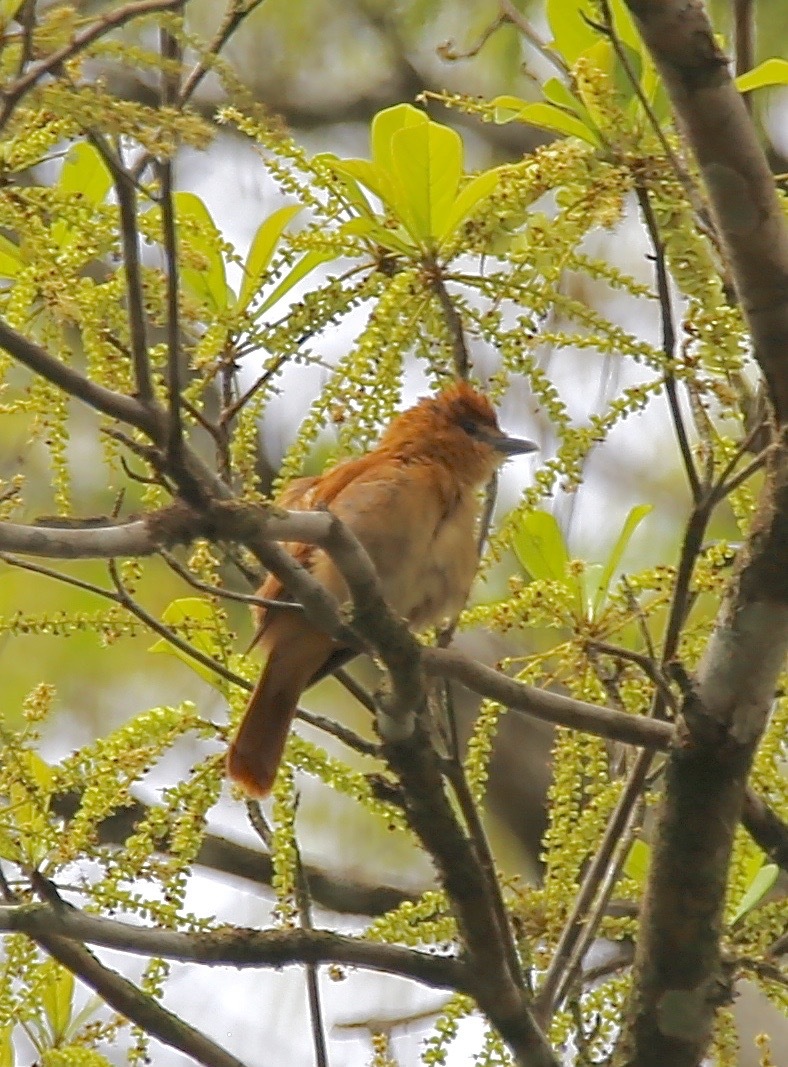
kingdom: Animalia
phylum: Chordata
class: Aves
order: Passeriformes
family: Cotingidae
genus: Pachyramphus
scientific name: Pachyramphus cinnamomeus
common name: Cinnamon becard
